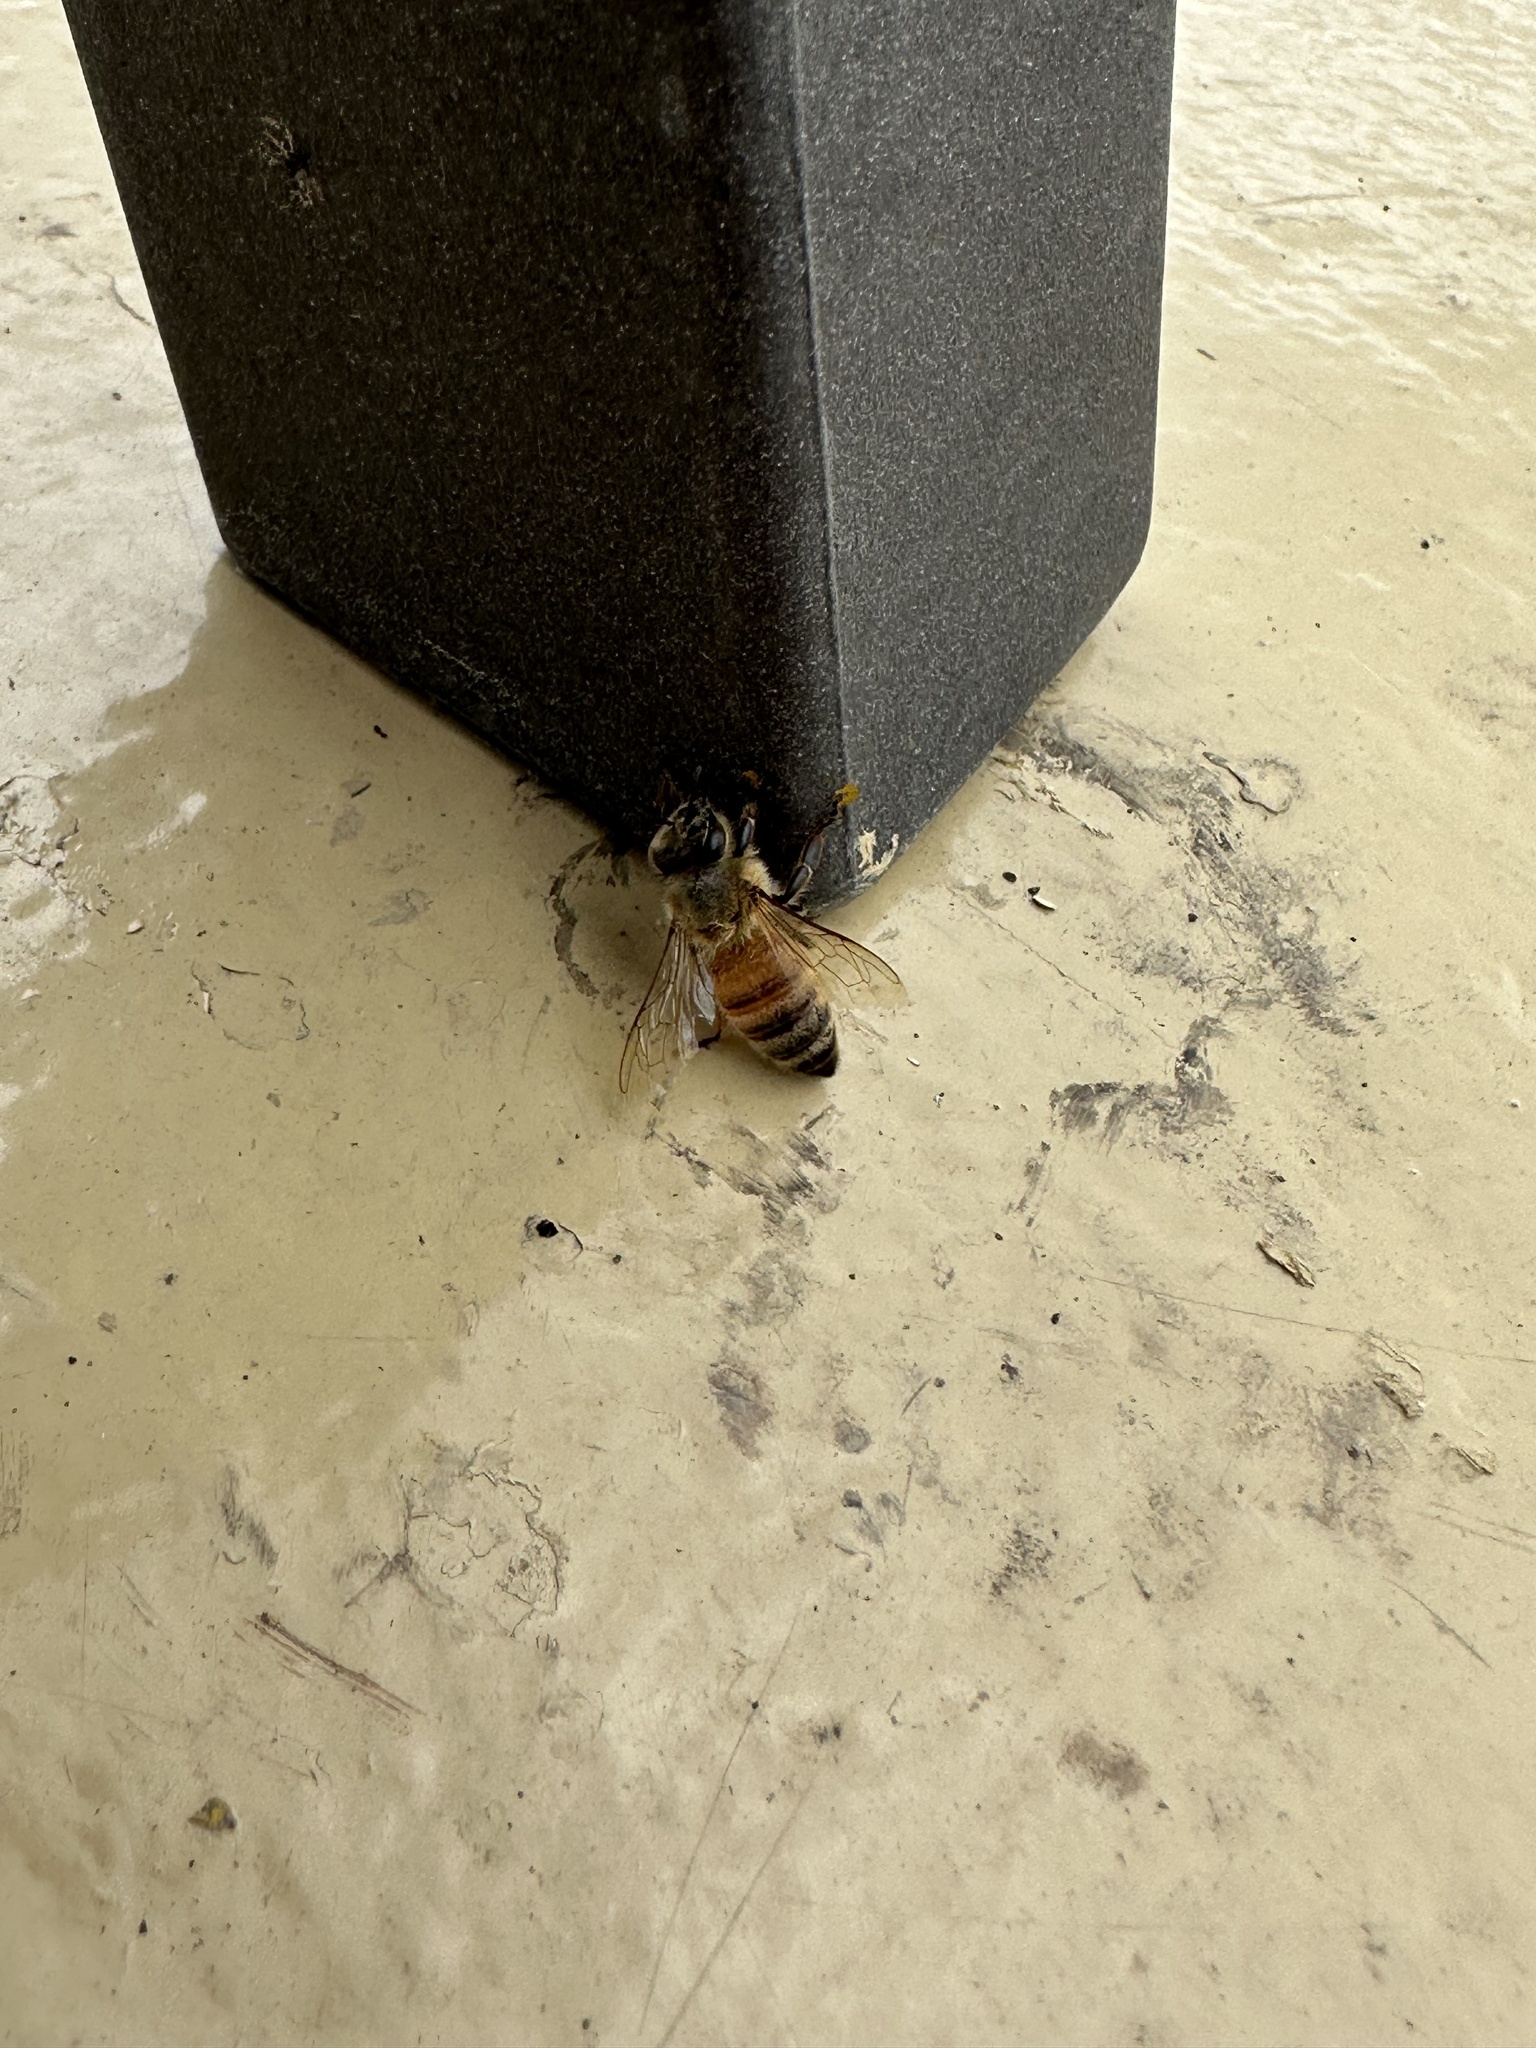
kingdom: Animalia
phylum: Arthropoda
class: Insecta
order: Hymenoptera
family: Apidae
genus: Apis
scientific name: Apis mellifera
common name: Honey bee
